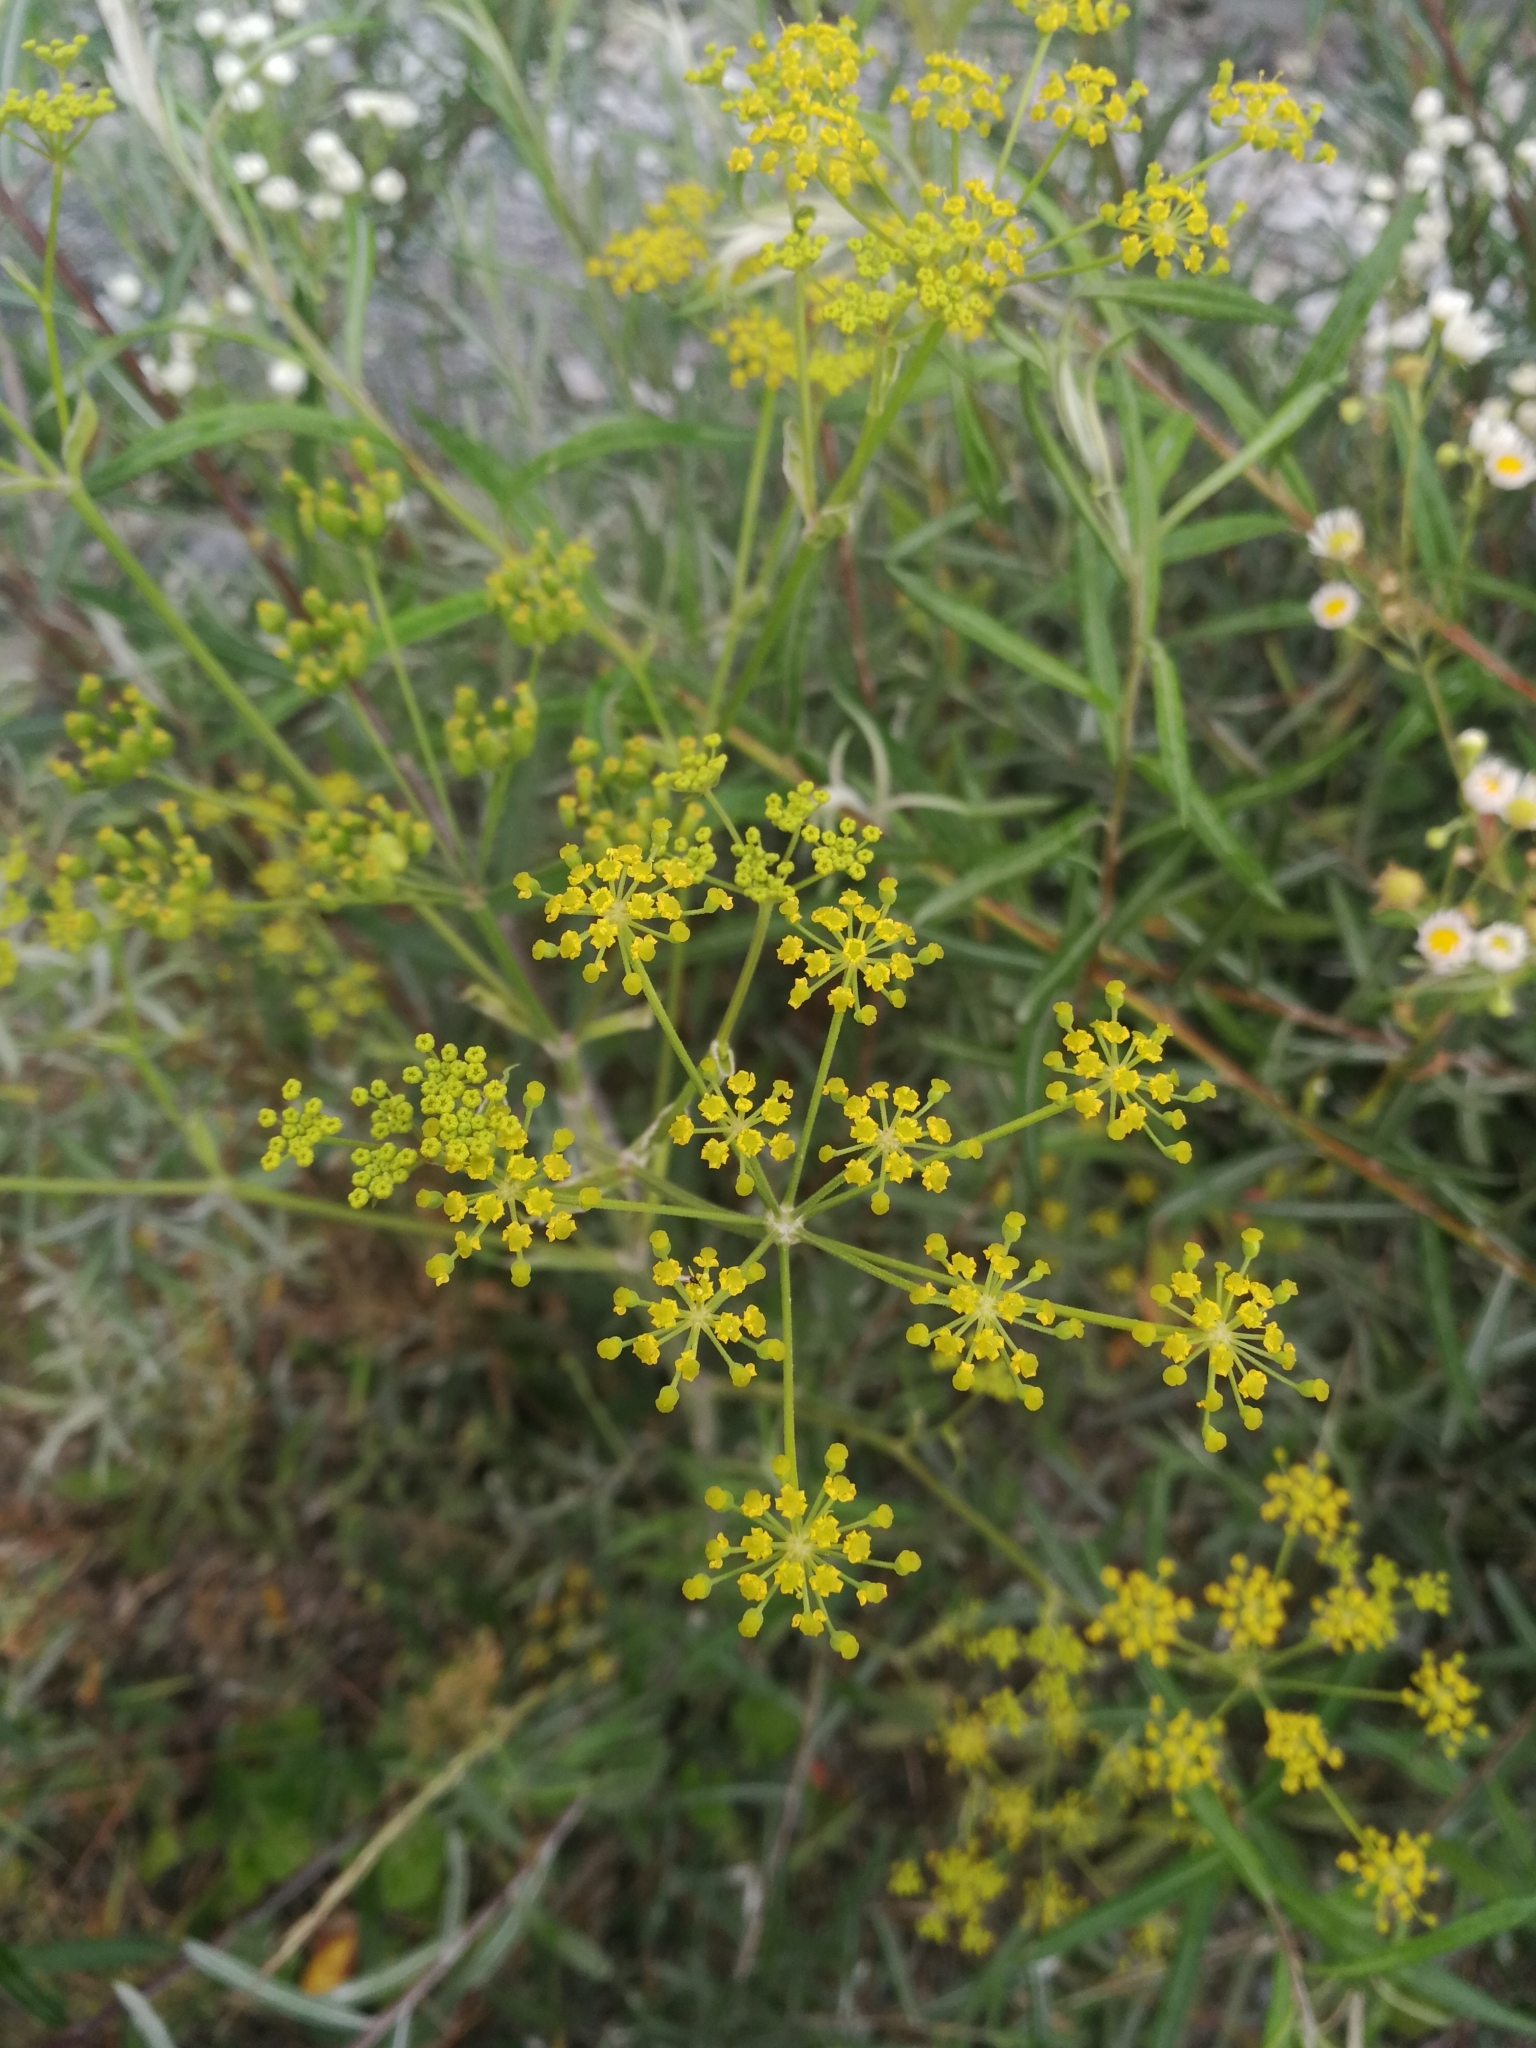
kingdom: Plantae
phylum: Tracheophyta
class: Magnoliopsida
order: Apiales
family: Apiaceae
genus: Pastinaca
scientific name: Pastinaca sativa
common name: Wild parsnip
